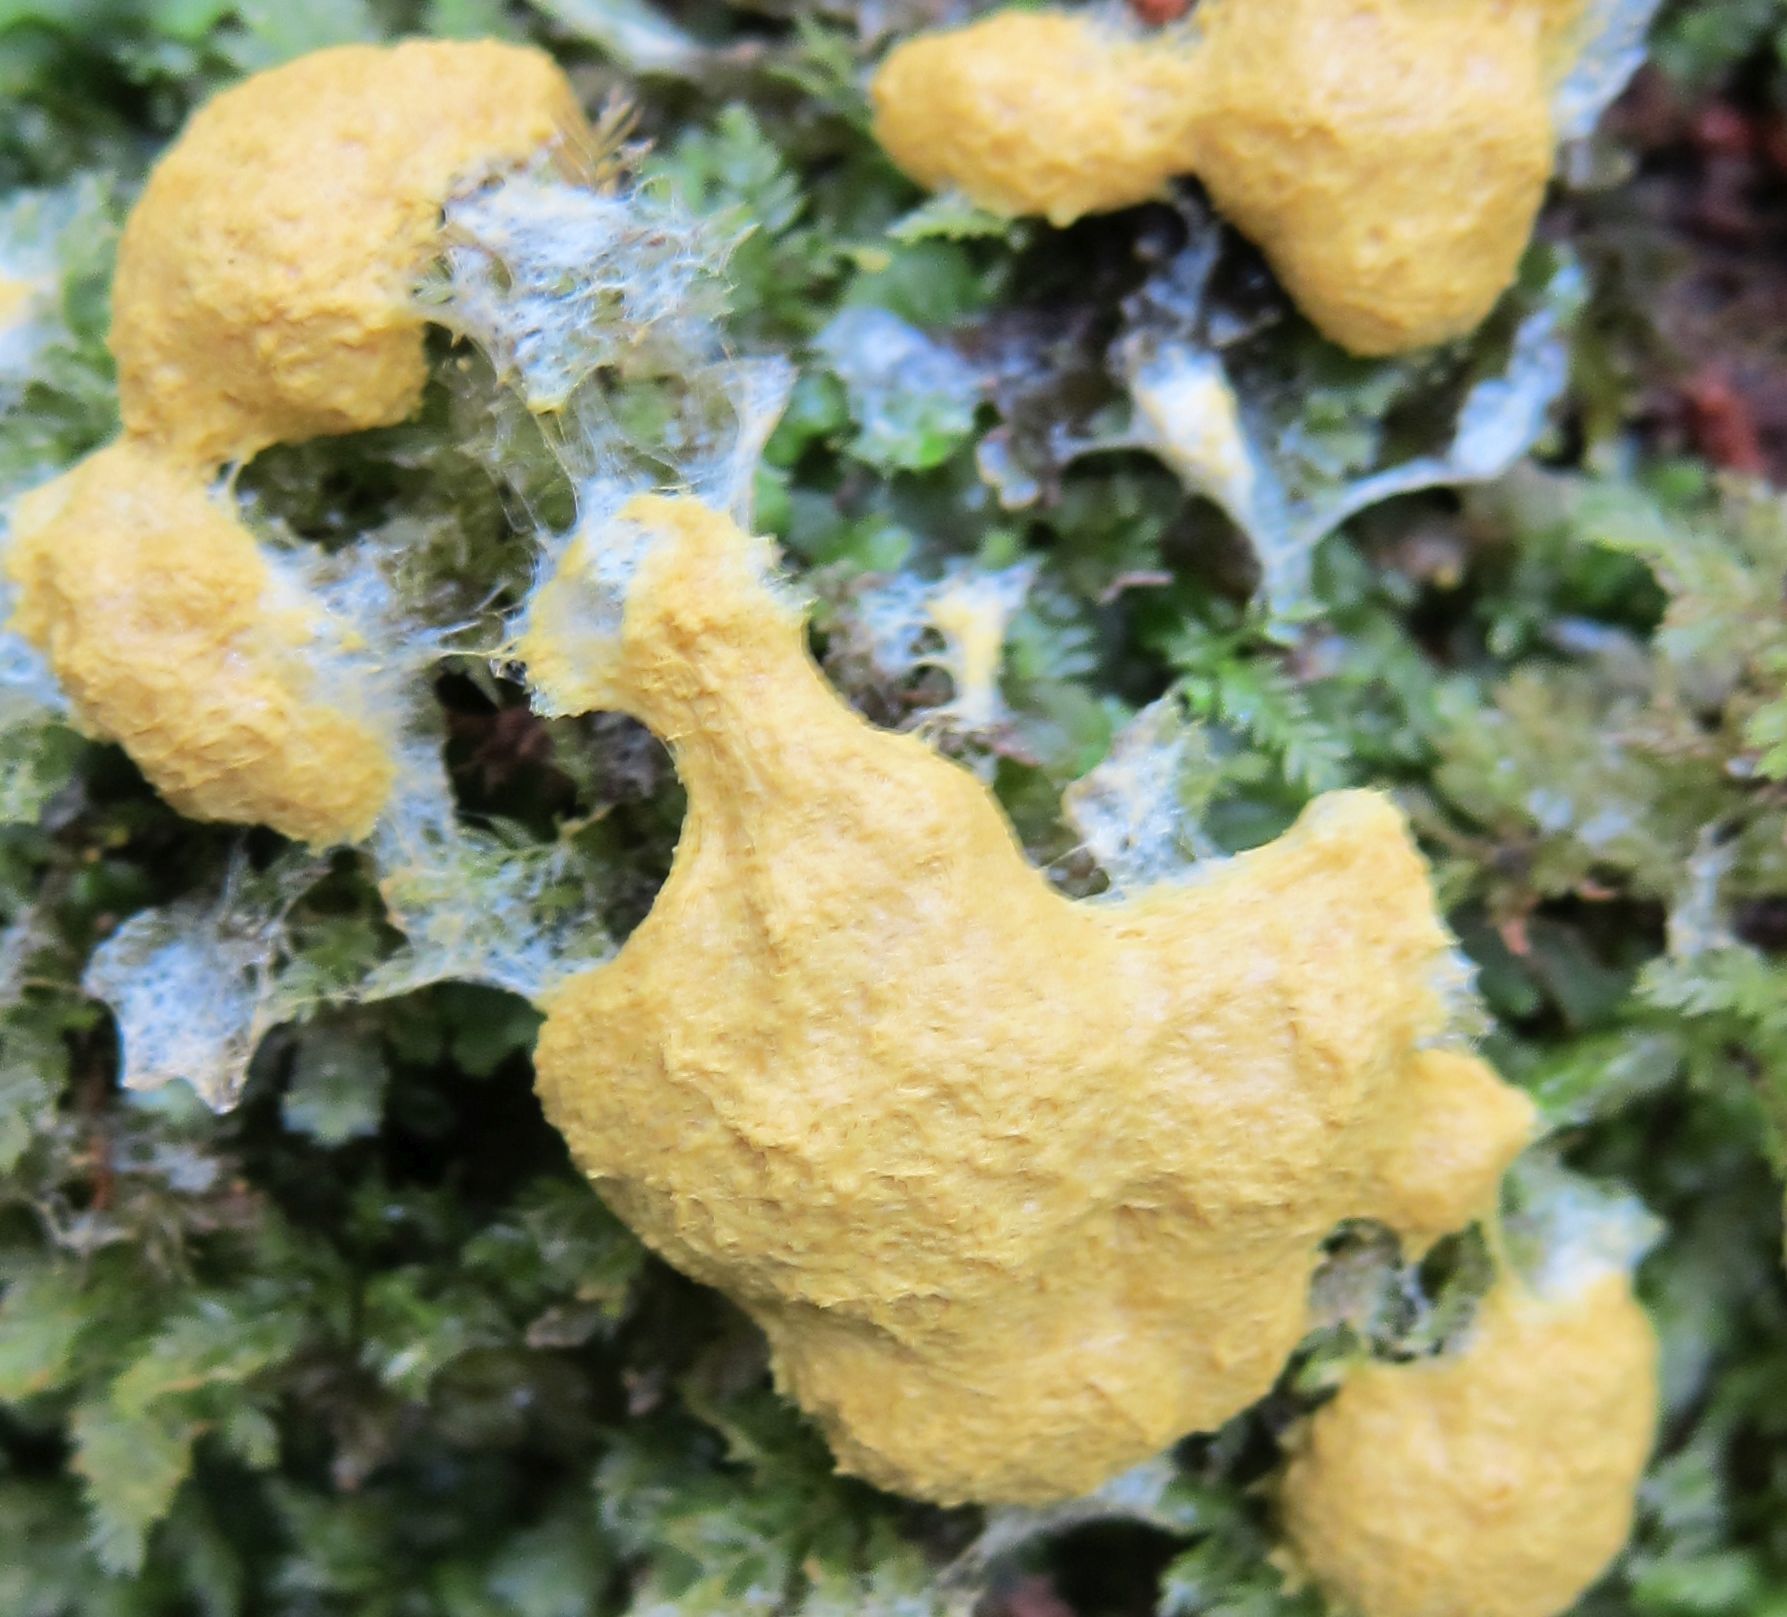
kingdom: Protozoa
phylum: Mycetozoa
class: Myxomycetes
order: Physarales
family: Physaraceae
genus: Fuligo
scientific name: Fuligo septica
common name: Dog vomit slime mold
